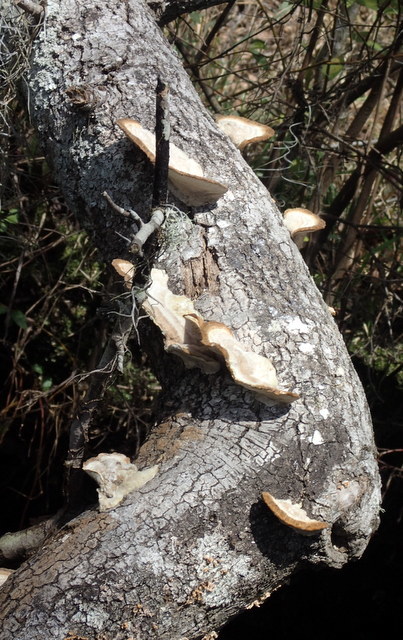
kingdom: Fungi
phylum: Basidiomycota
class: Agaricomycetes
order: Polyporales
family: Polyporaceae
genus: Trametes
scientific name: Trametes lactinea
